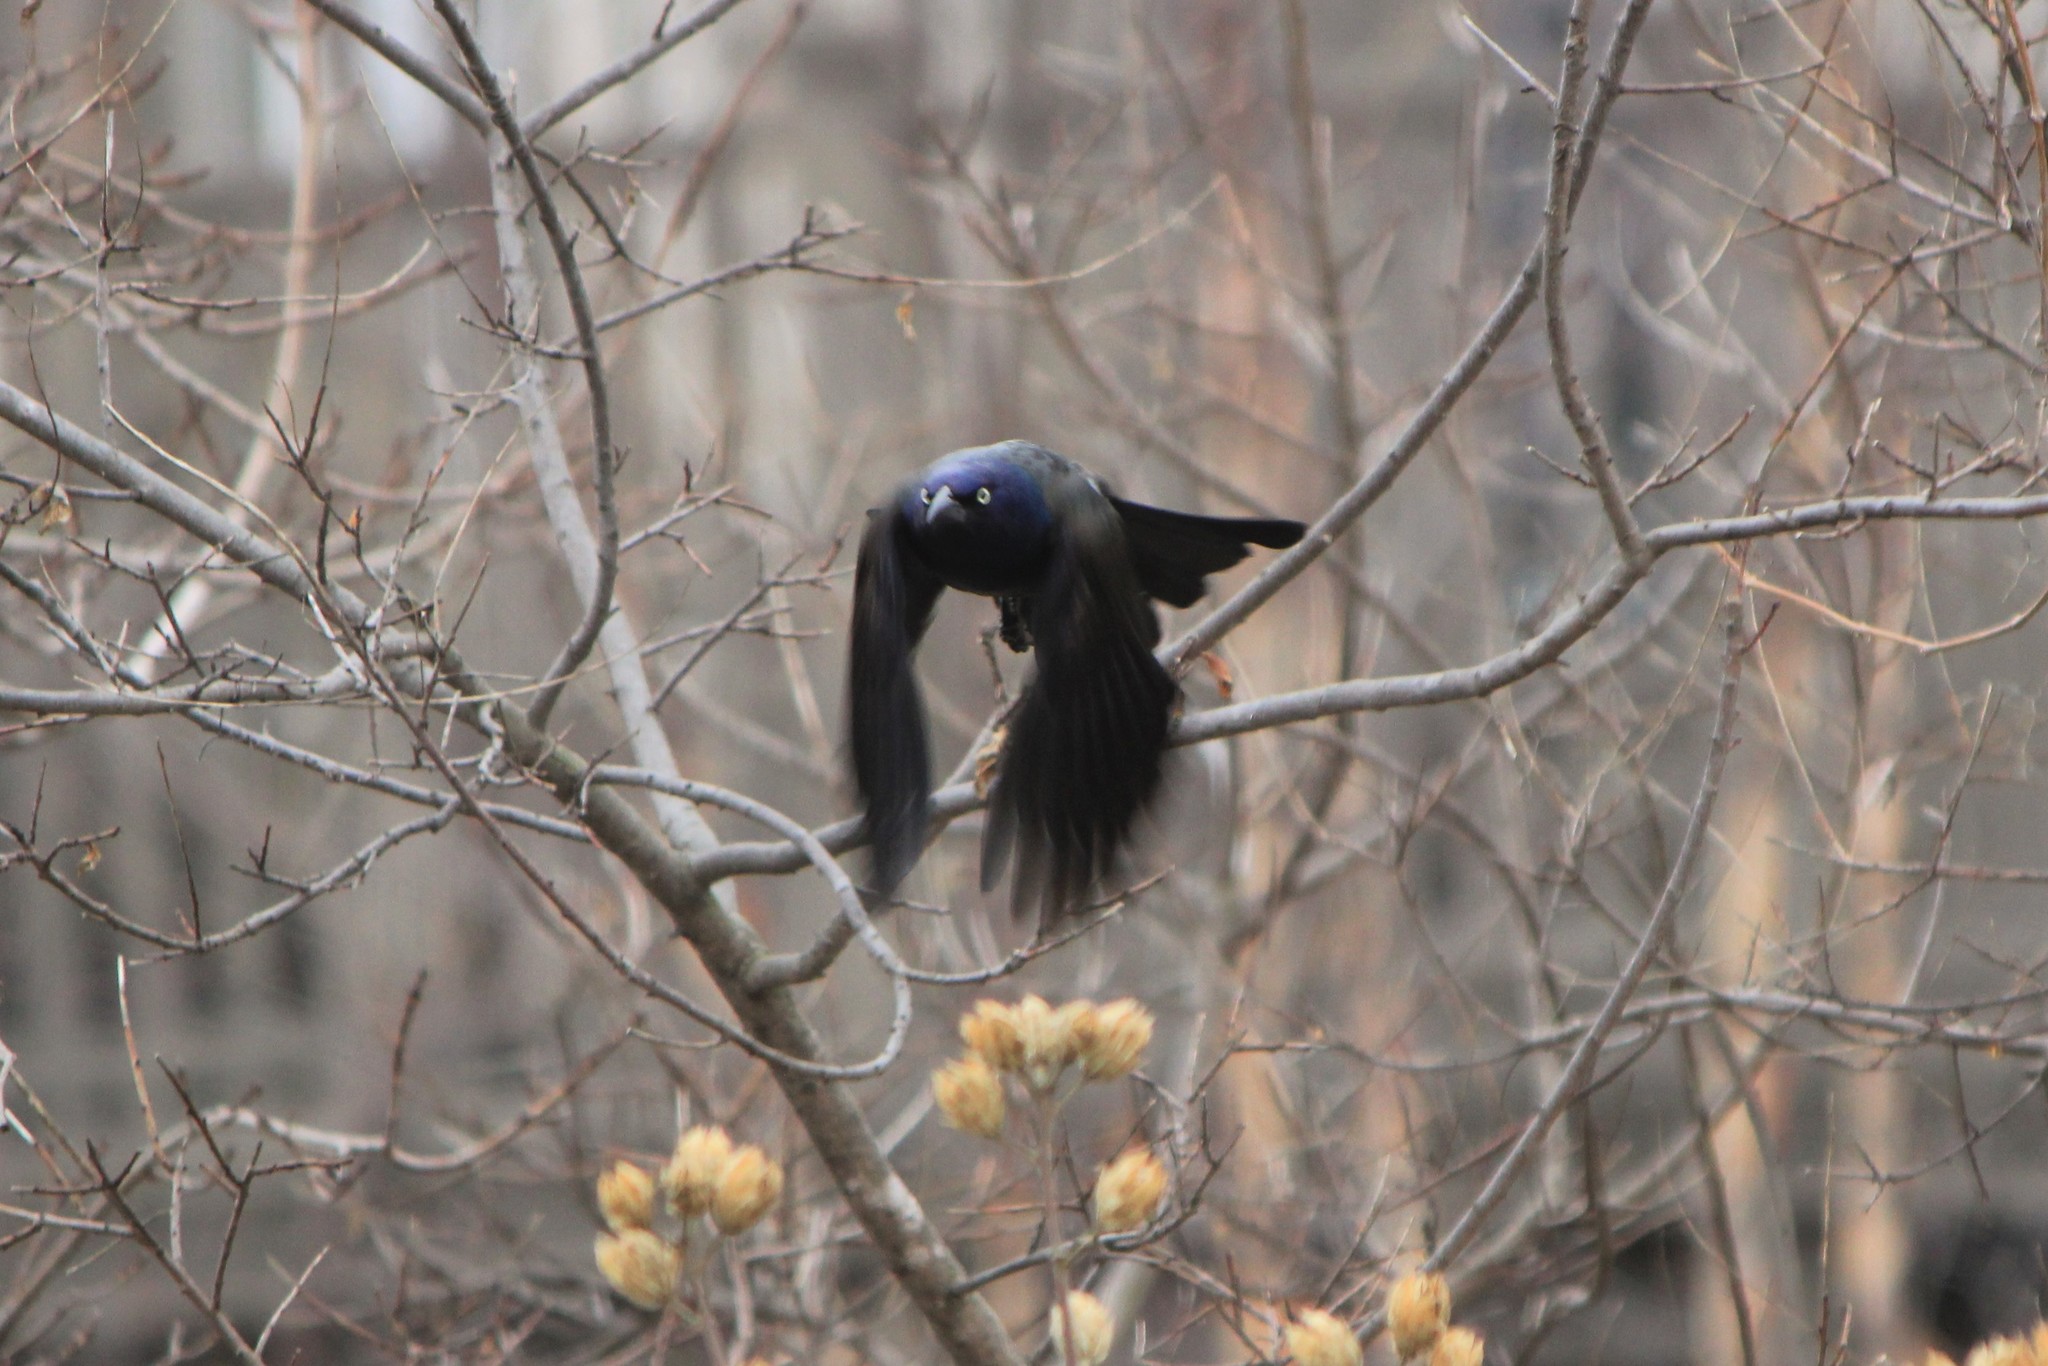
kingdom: Animalia
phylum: Chordata
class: Aves
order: Passeriformes
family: Icteridae
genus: Quiscalus
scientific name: Quiscalus quiscula
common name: Common grackle
